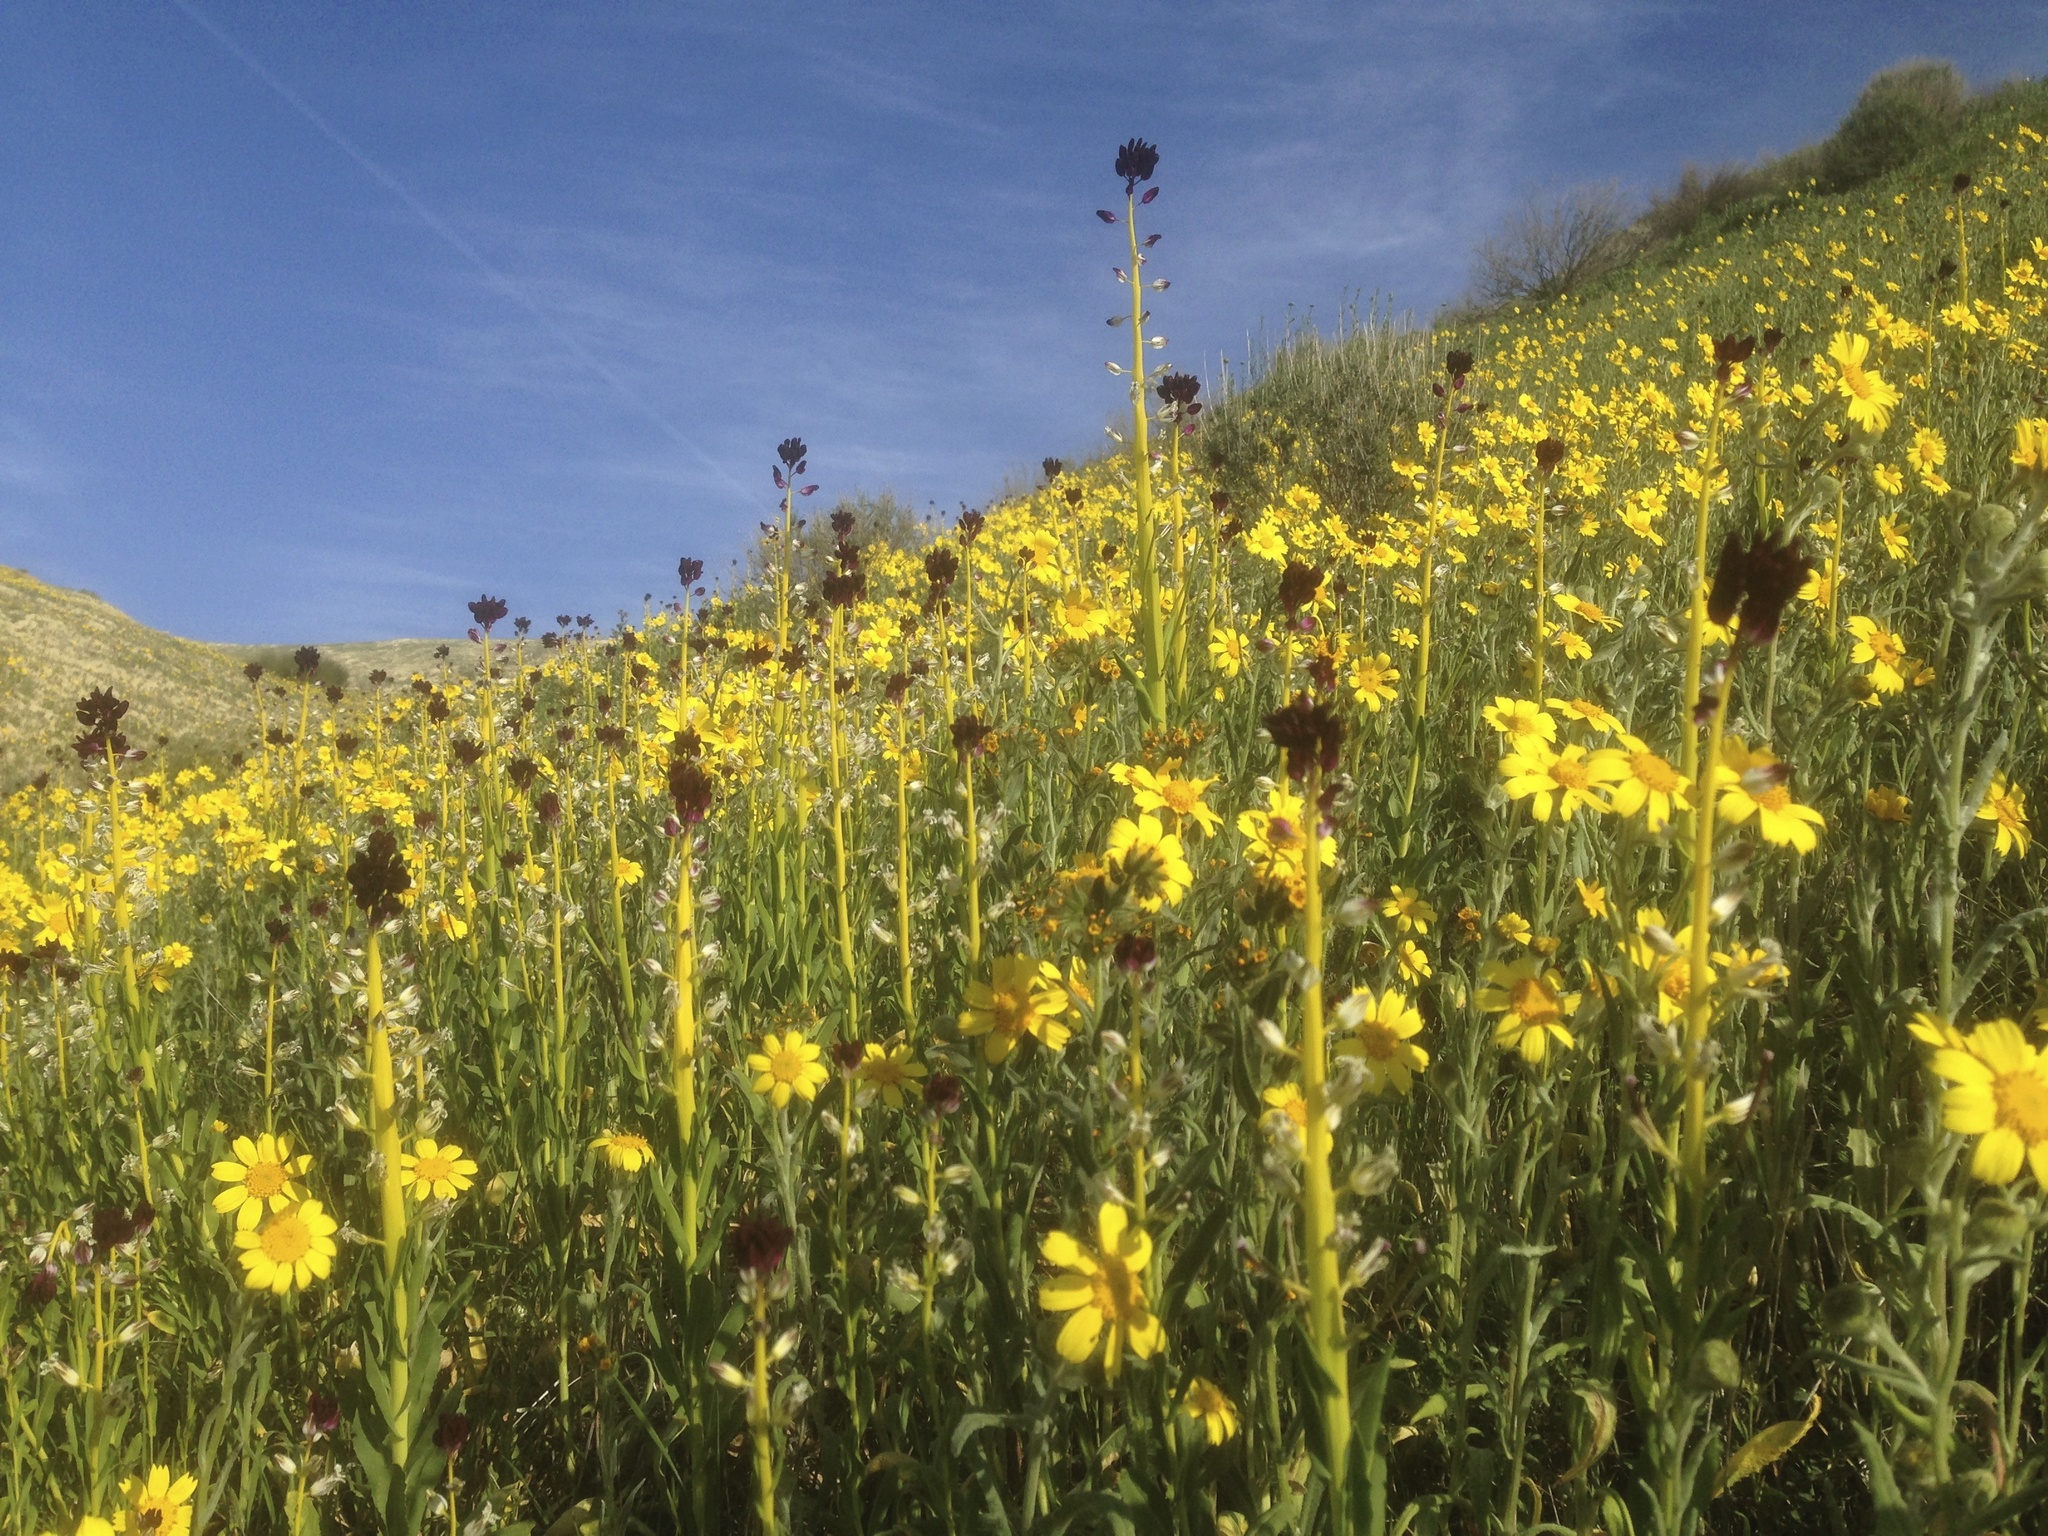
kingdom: Plantae
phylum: Tracheophyta
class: Magnoliopsida
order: Brassicales
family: Brassicaceae
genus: Streptanthus
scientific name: Streptanthus inflatus
